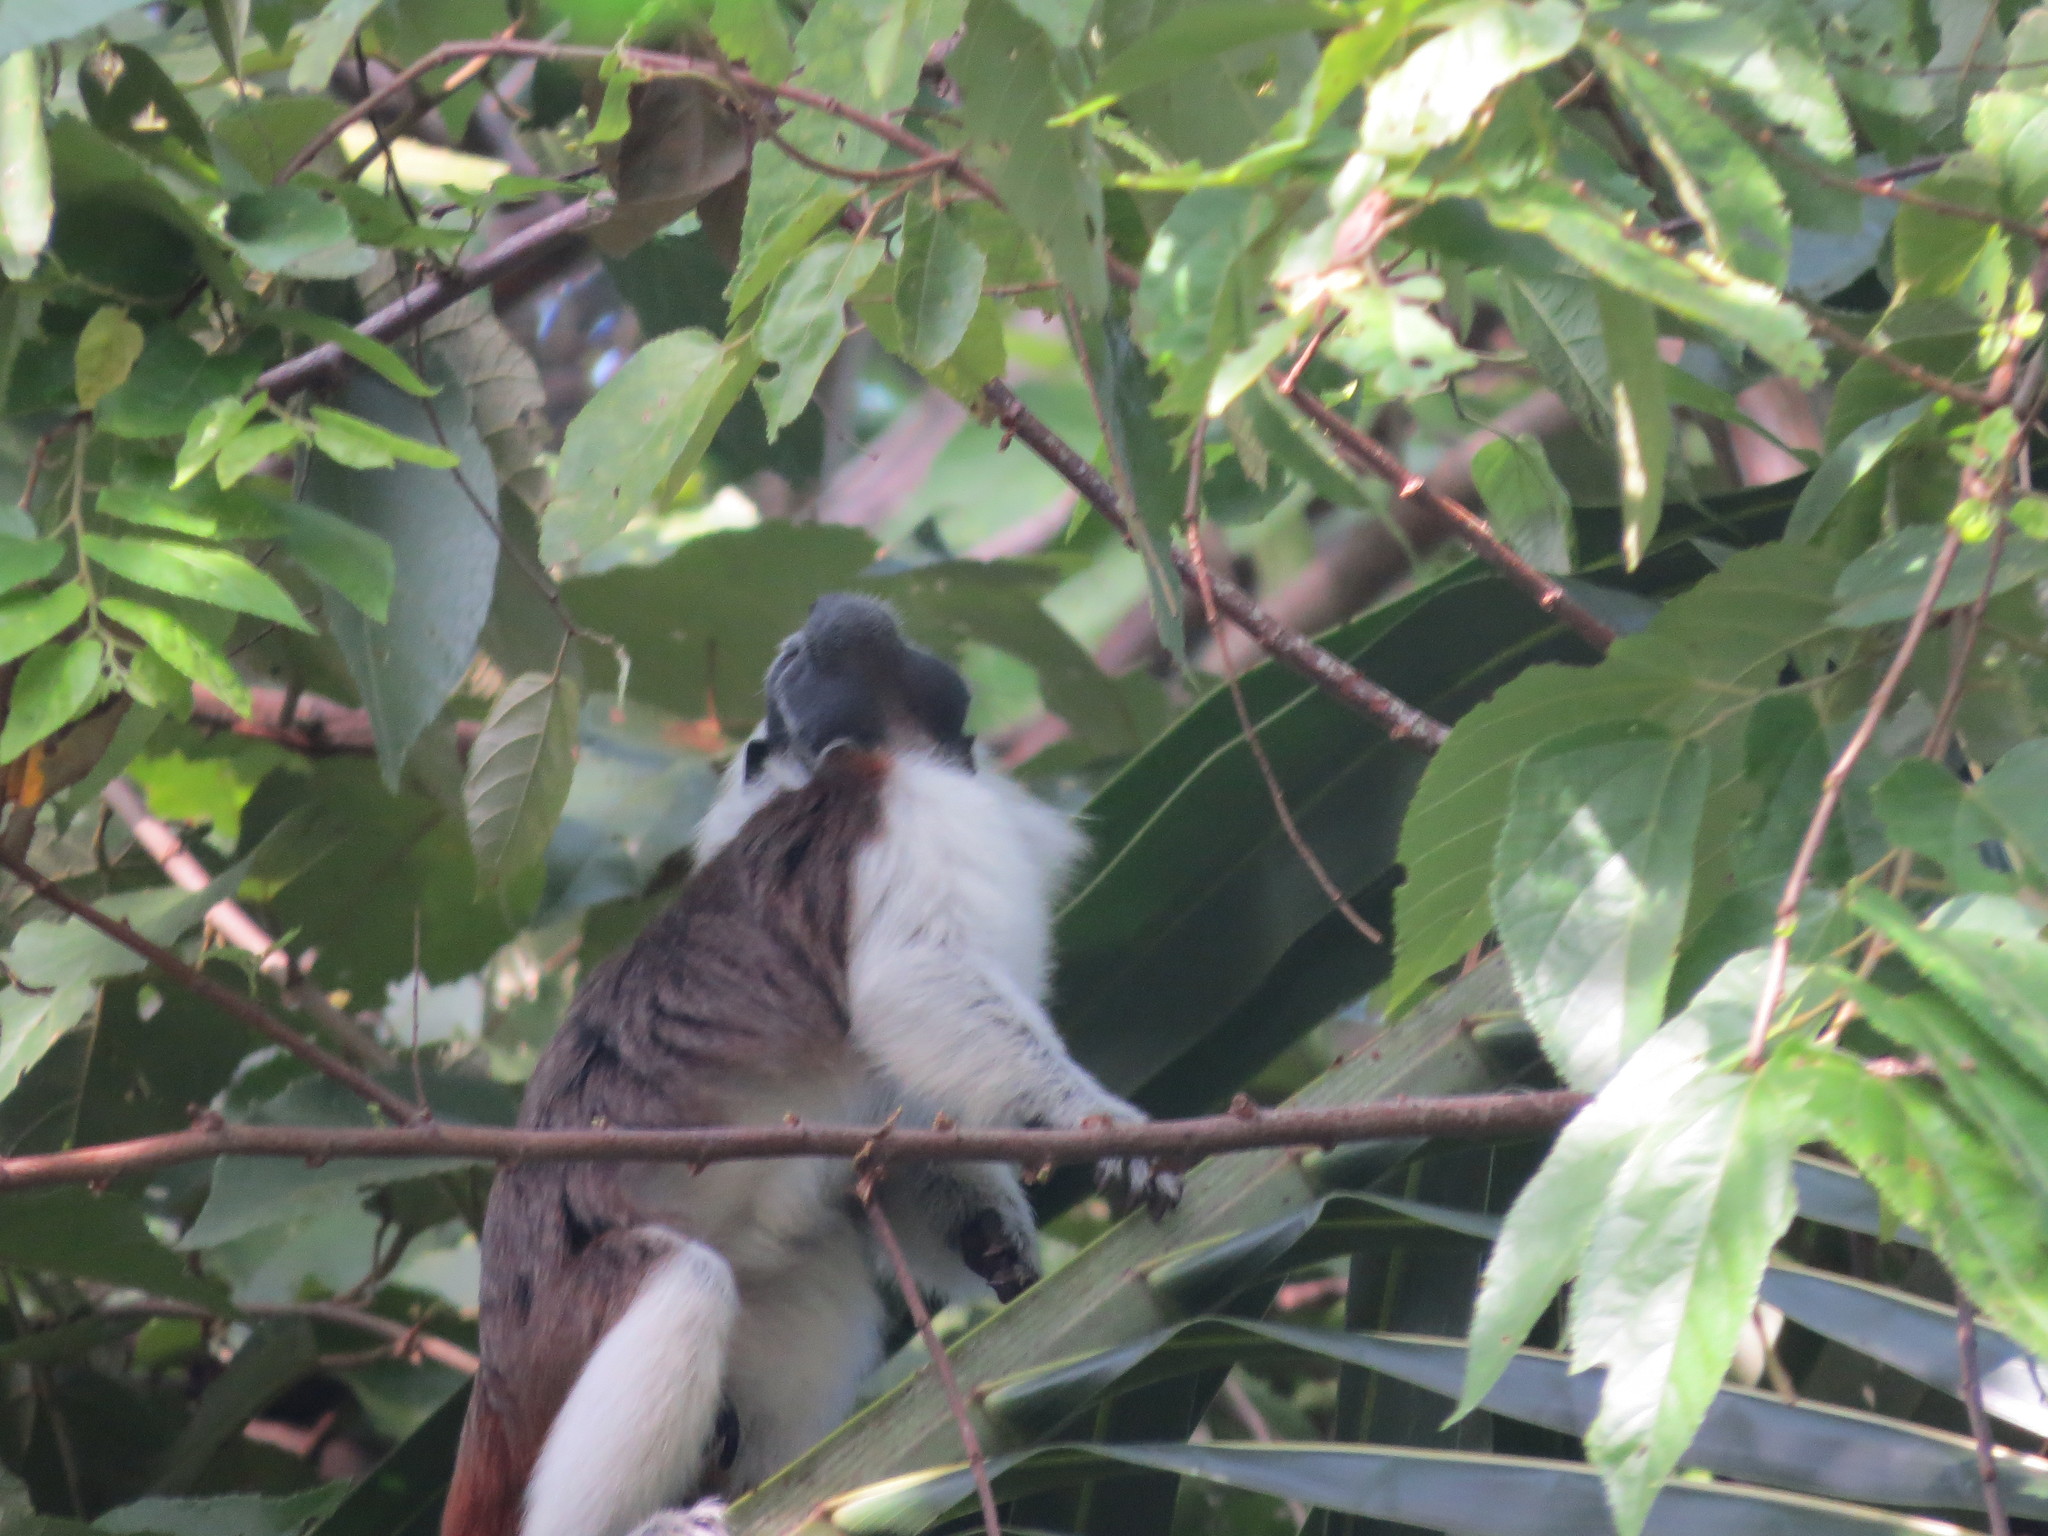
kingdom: Animalia
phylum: Chordata
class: Mammalia
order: Primates
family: Callitrichidae
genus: Saguinus
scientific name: Saguinus oedipus
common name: Cottontop tamarin
